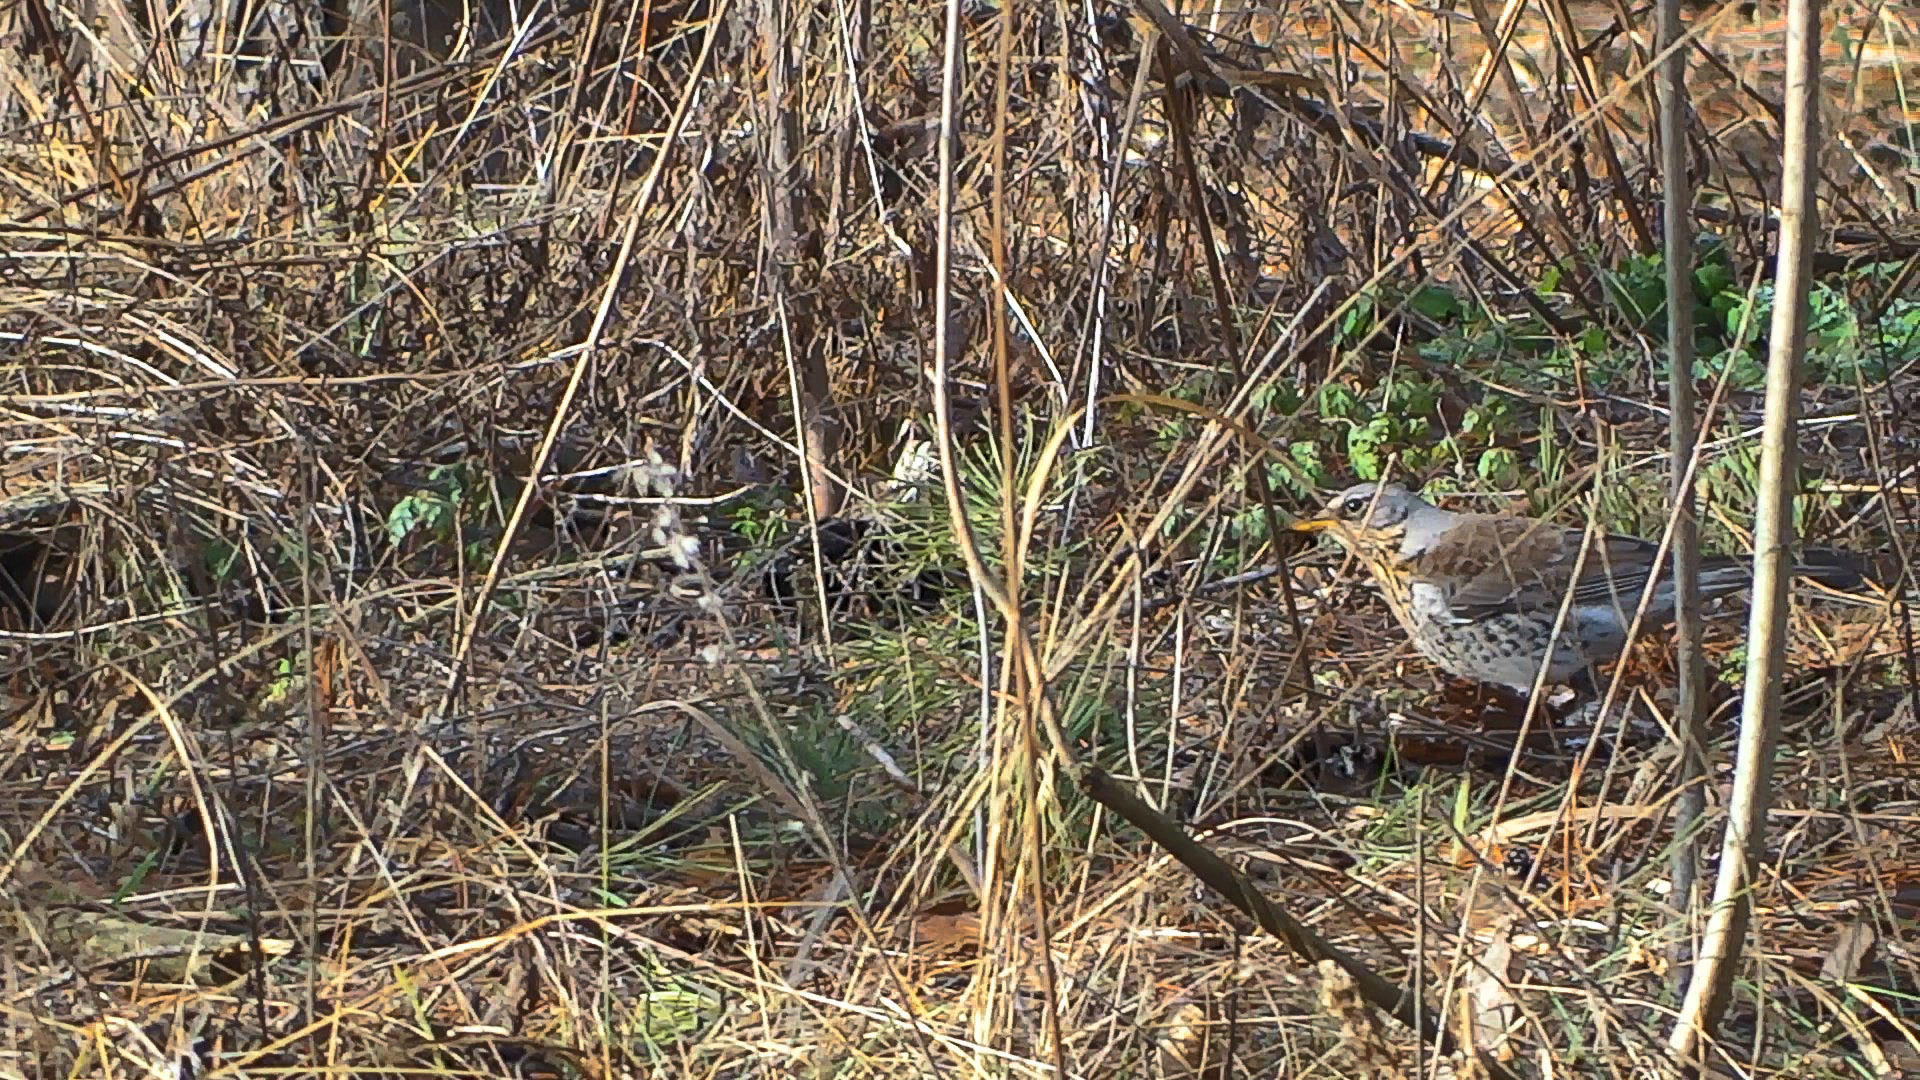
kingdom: Animalia
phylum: Chordata
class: Aves
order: Passeriformes
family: Turdidae
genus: Turdus
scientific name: Turdus pilaris
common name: Fieldfare
